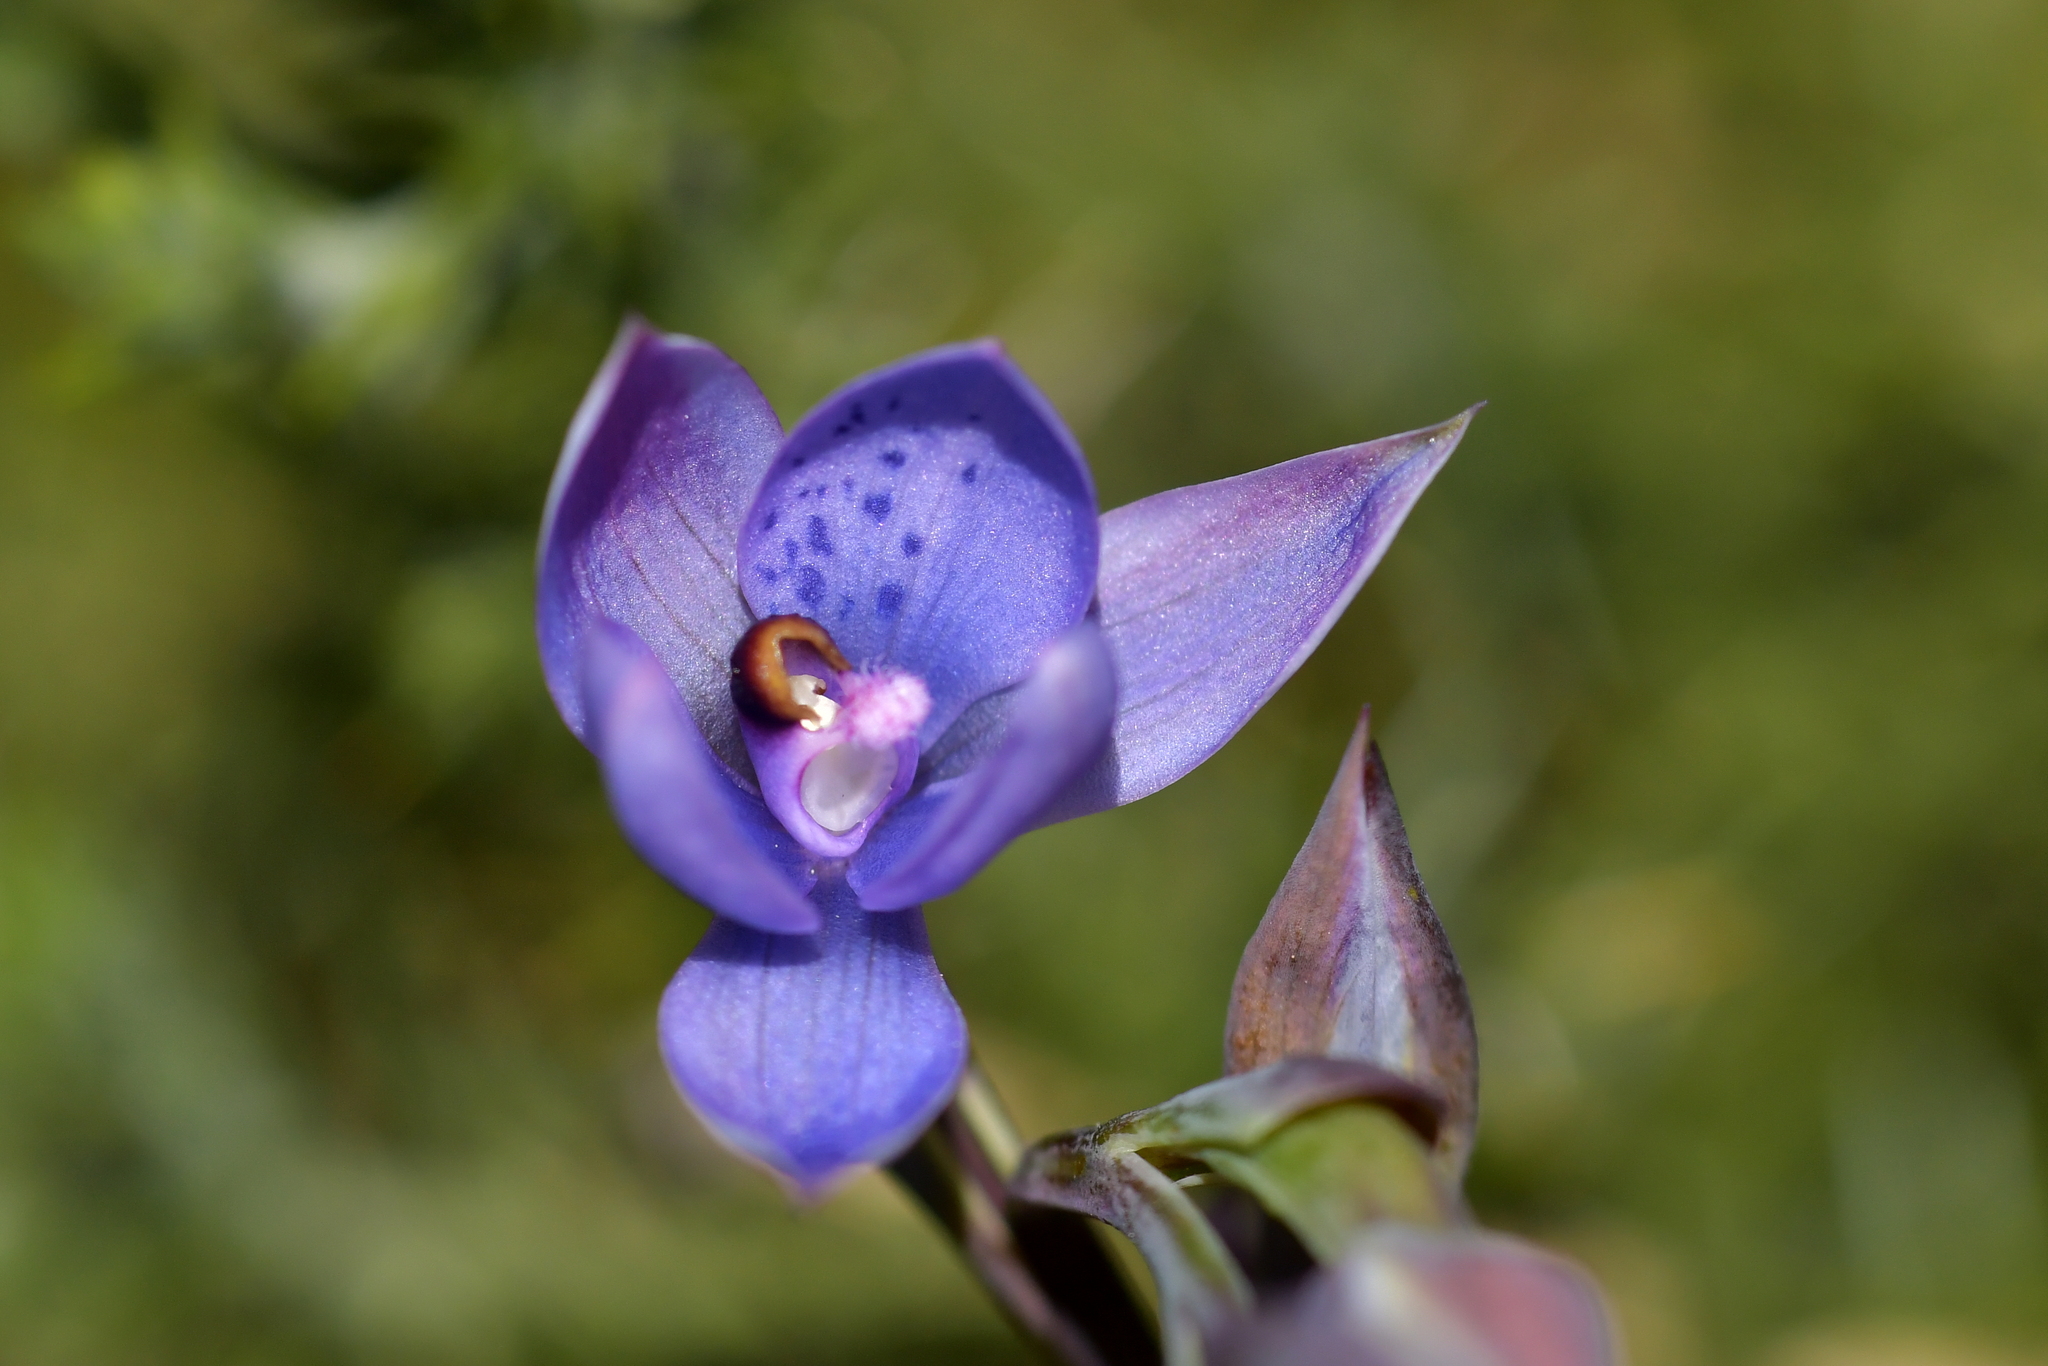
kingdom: Plantae
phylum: Tracheophyta
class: Liliopsida
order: Asparagales
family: Orchidaceae
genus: Thelymitra
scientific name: Thelymitra nervosa
